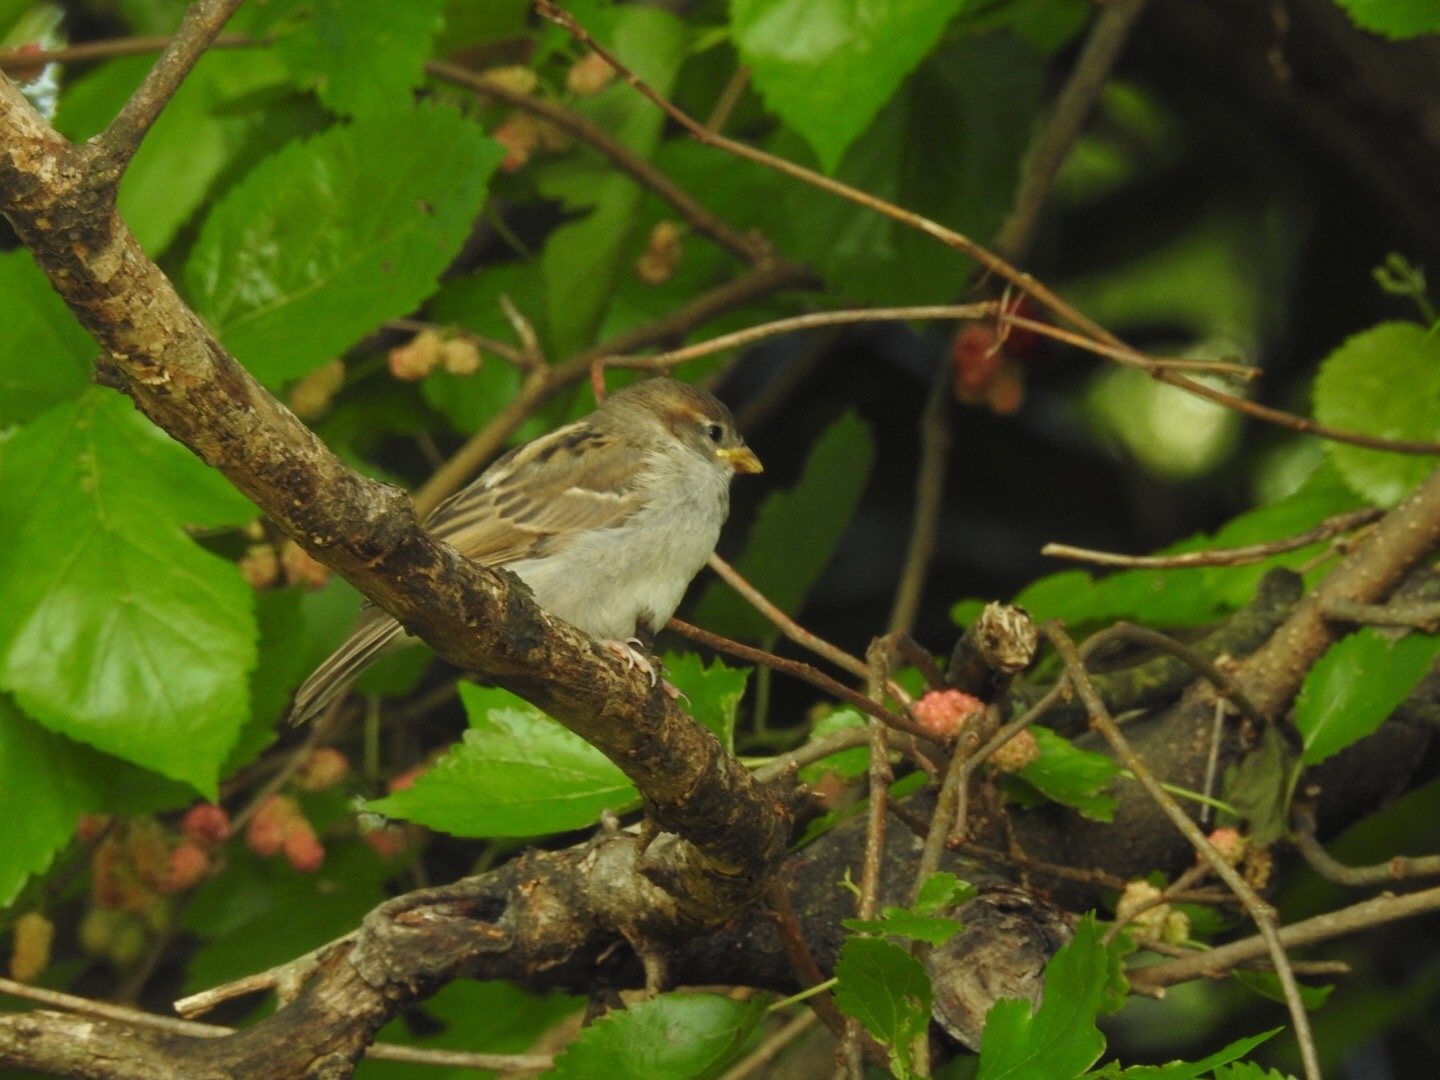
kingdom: Animalia
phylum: Chordata
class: Aves
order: Passeriformes
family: Passeridae
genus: Passer
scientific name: Passer domesticus
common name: House sparrow
